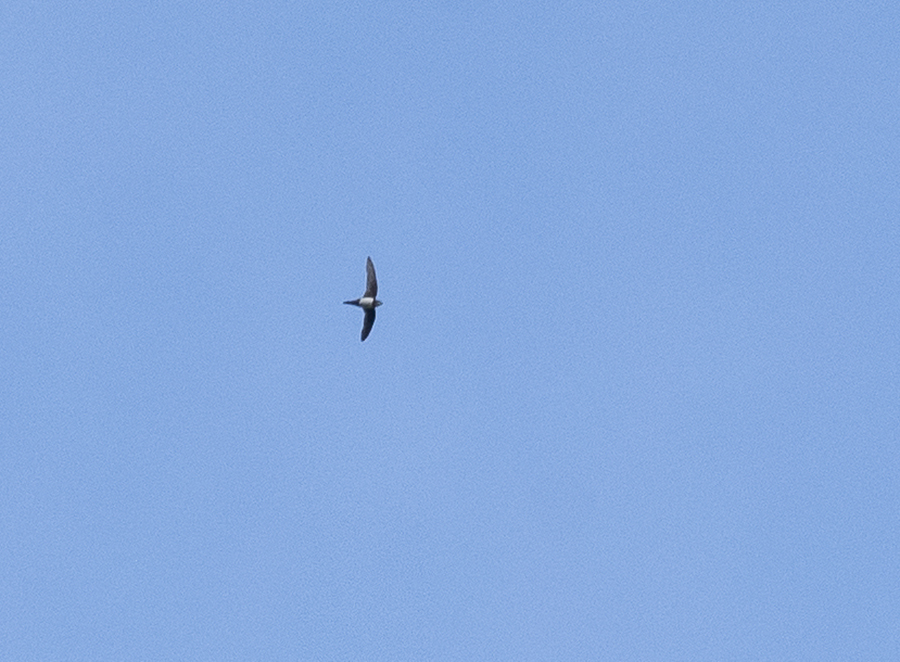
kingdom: Animalia
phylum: Chordata
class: Aves
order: Apodiformes
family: Apodidae
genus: Tachymarptis
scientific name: Tachymarptis melba
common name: Alpine swift
